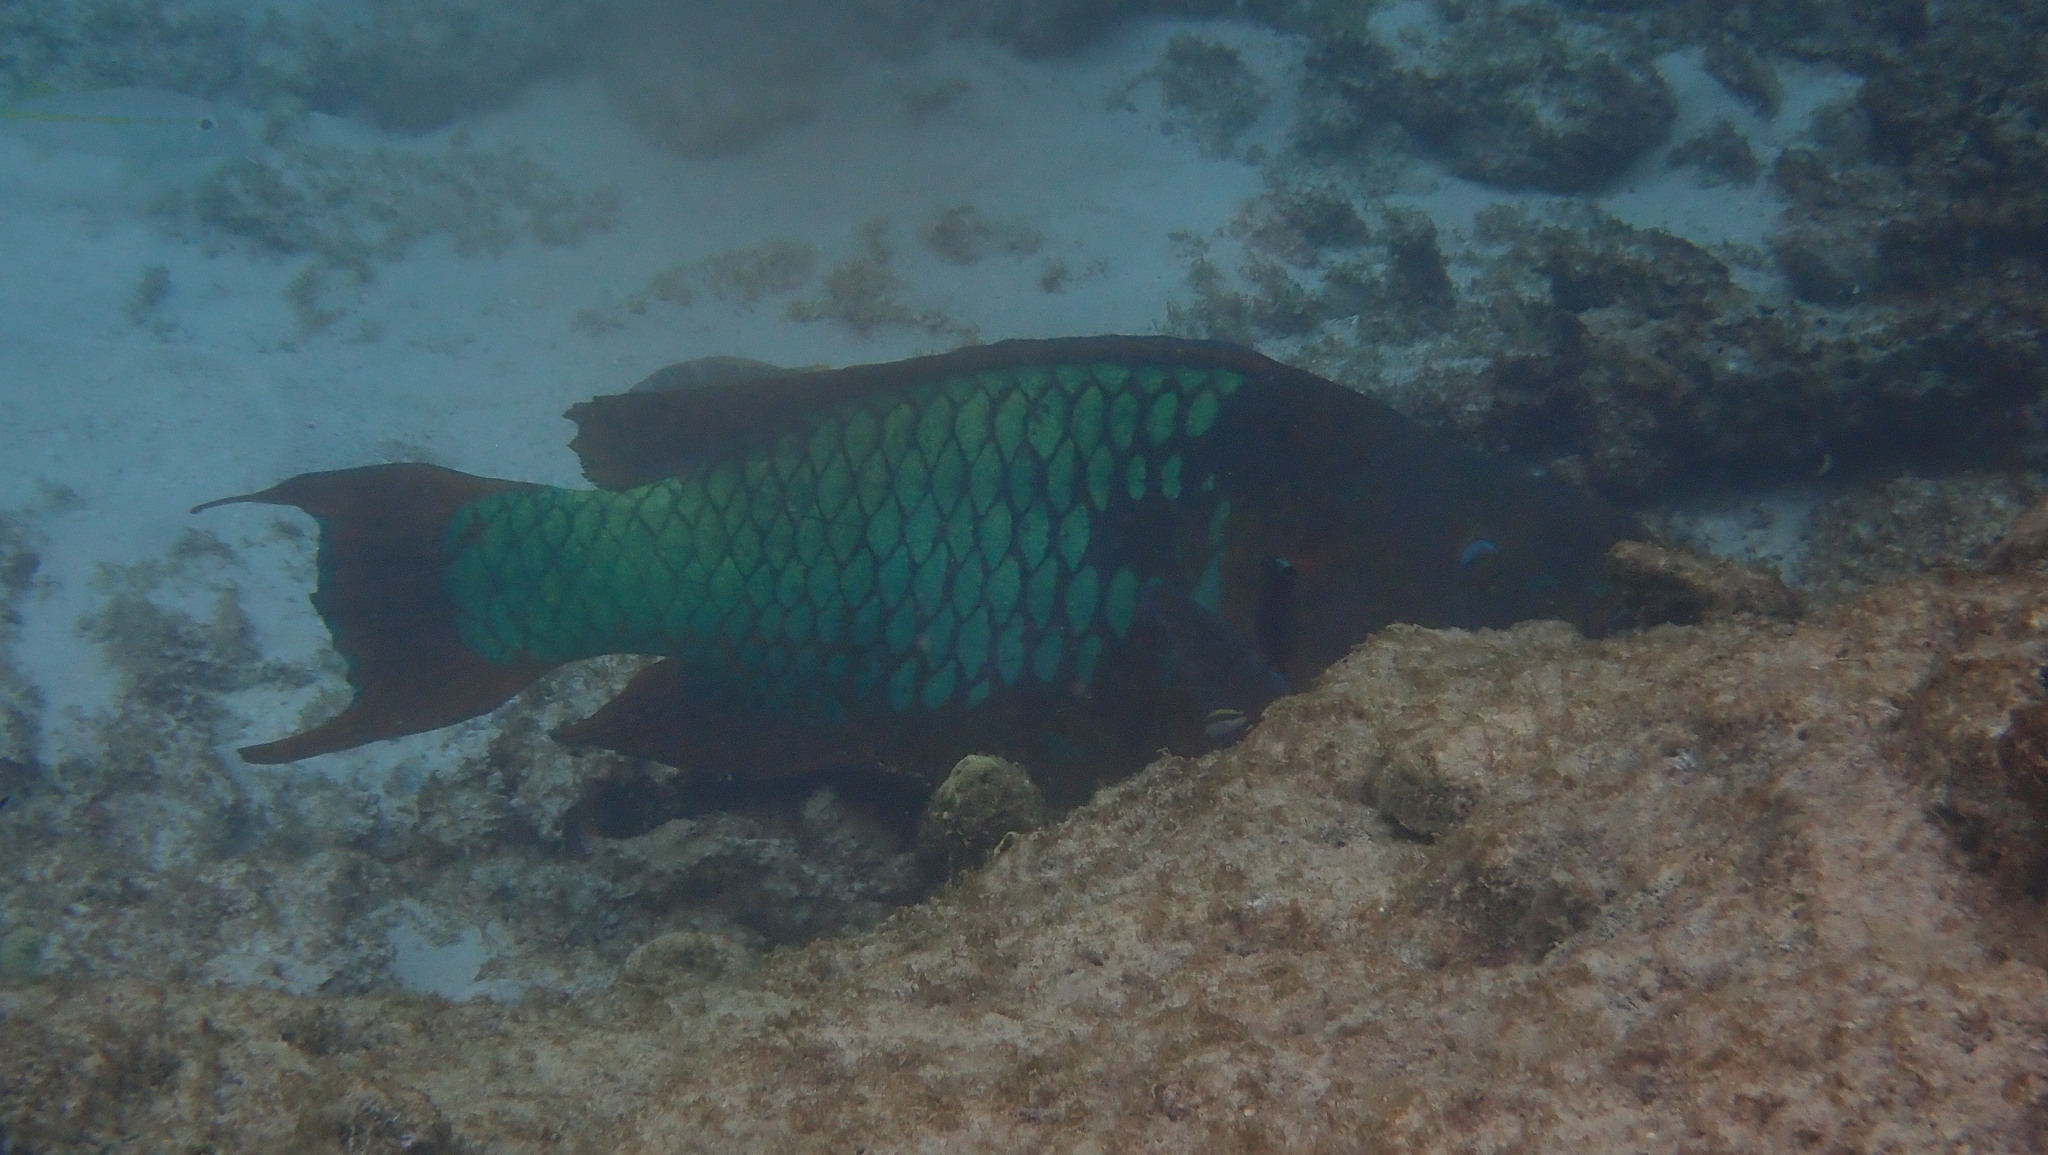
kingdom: Animalia
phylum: Chordata
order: Perciformes
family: Scaridae
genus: Scarus
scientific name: Scarus guacamaia
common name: Rainbow parrotfish
